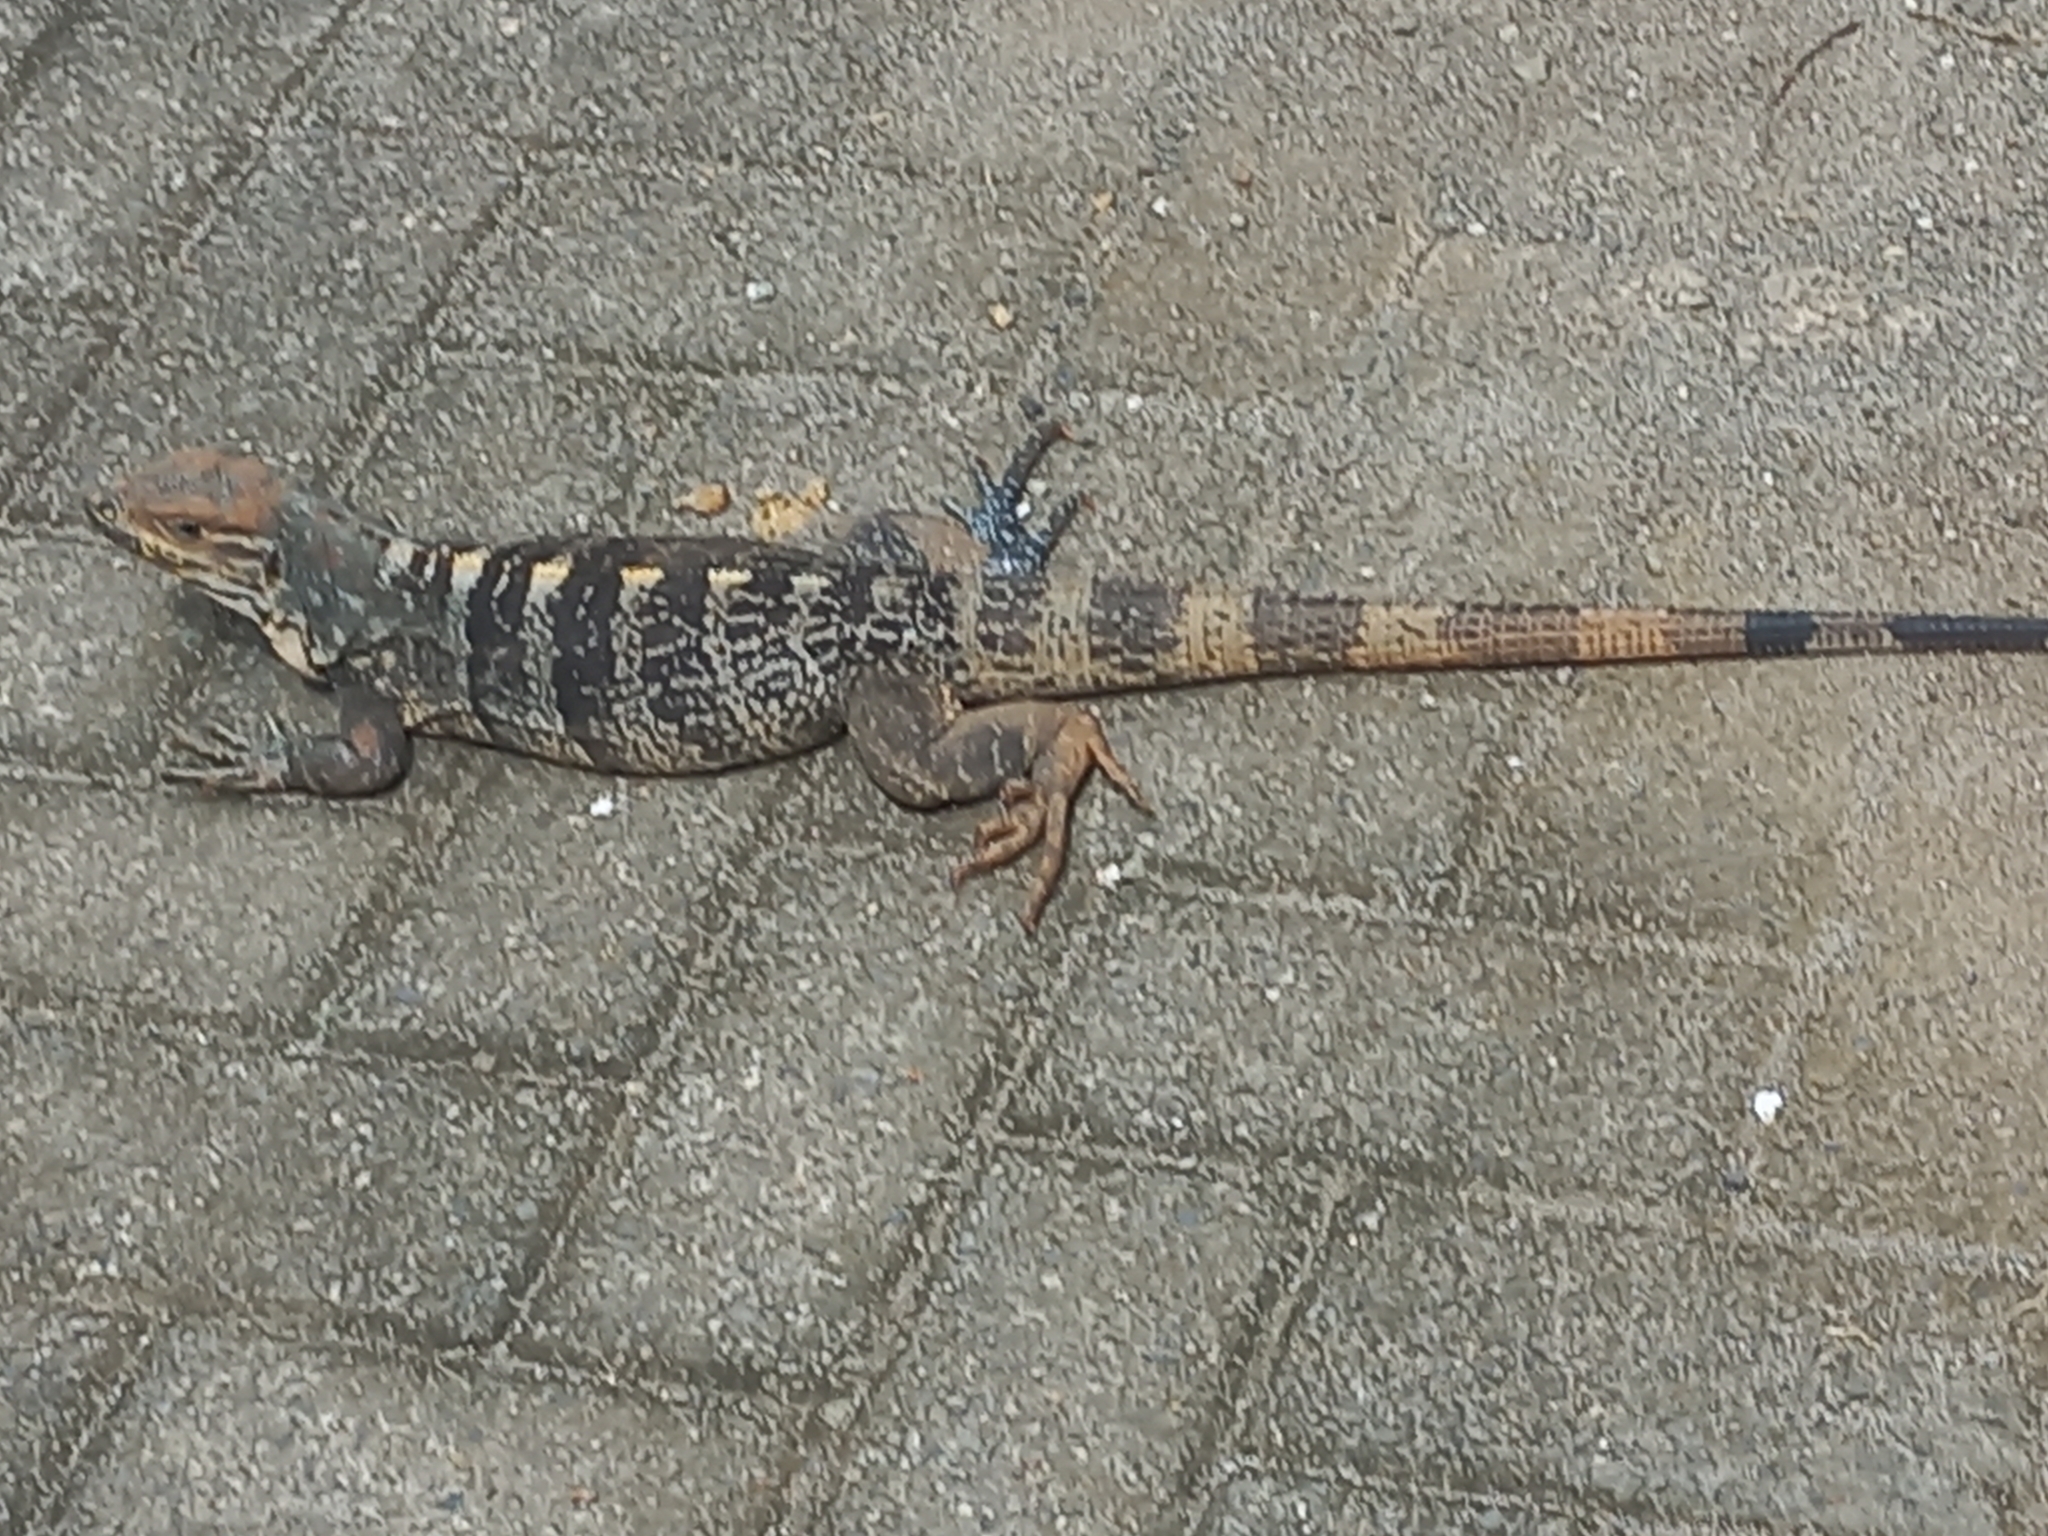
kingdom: Animalia
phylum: Chordata
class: Squamata
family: Iguanidae
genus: Ctenosaura
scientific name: Ctenosaura similis
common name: Black spiny-tailed iguana
